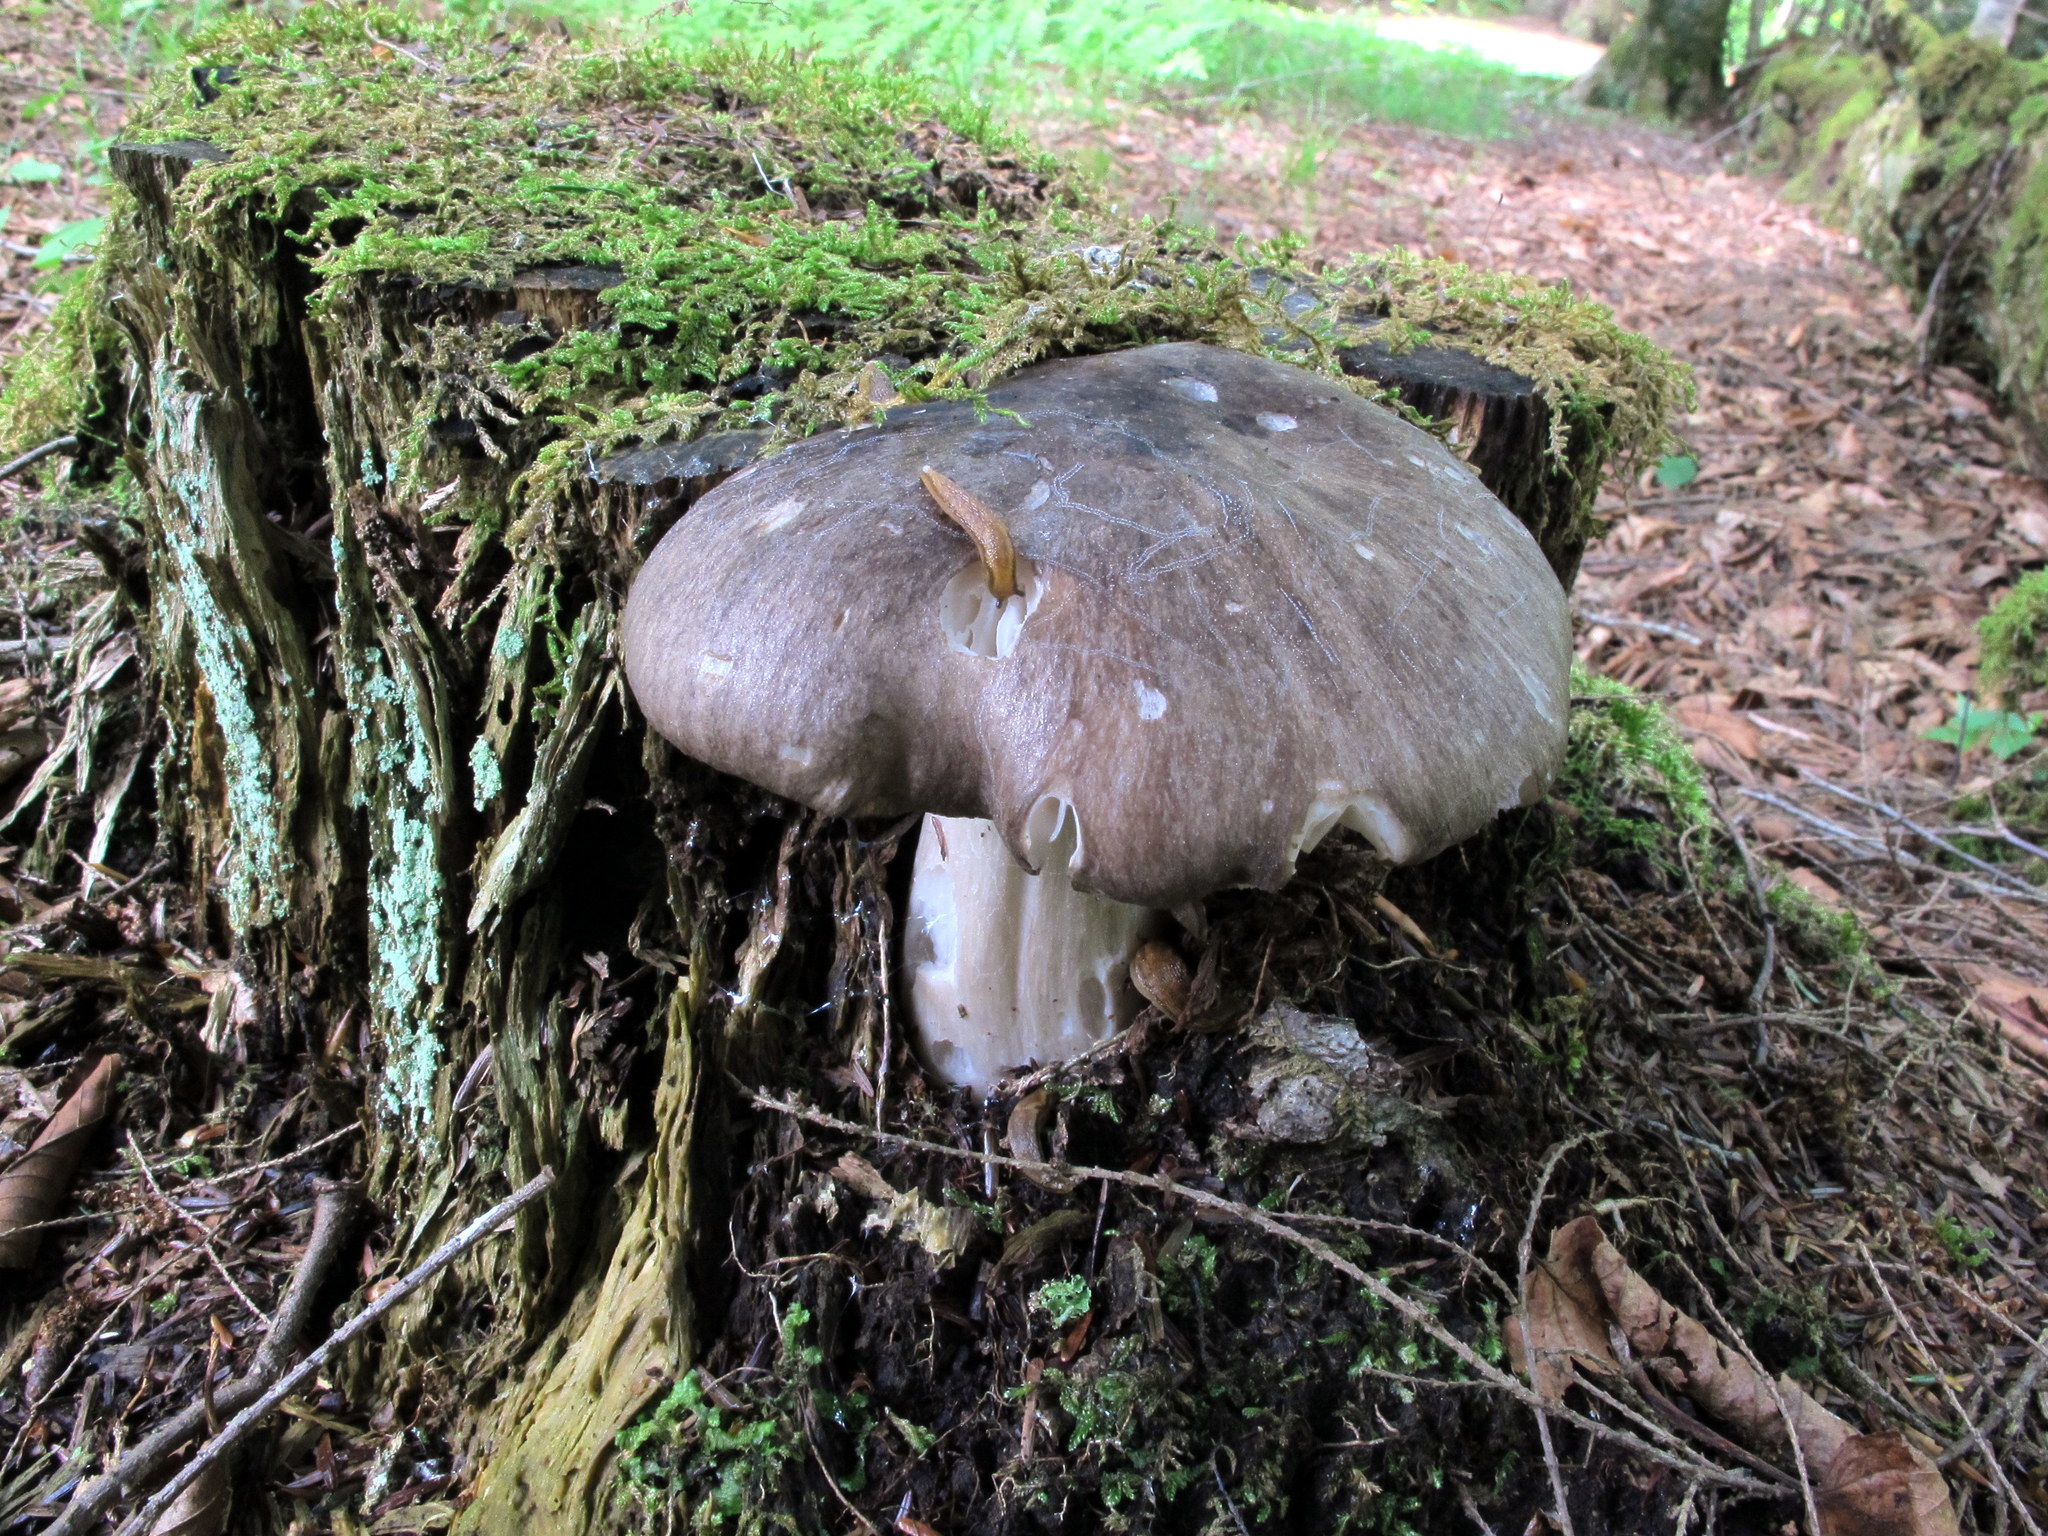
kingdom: Fungi
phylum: Basidiomycota
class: Agaricomycetes
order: Agaricales
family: Tricholomataceae
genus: Megacollybia
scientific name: Megacollybia rodmanii
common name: Eastern american platterful mushroom
